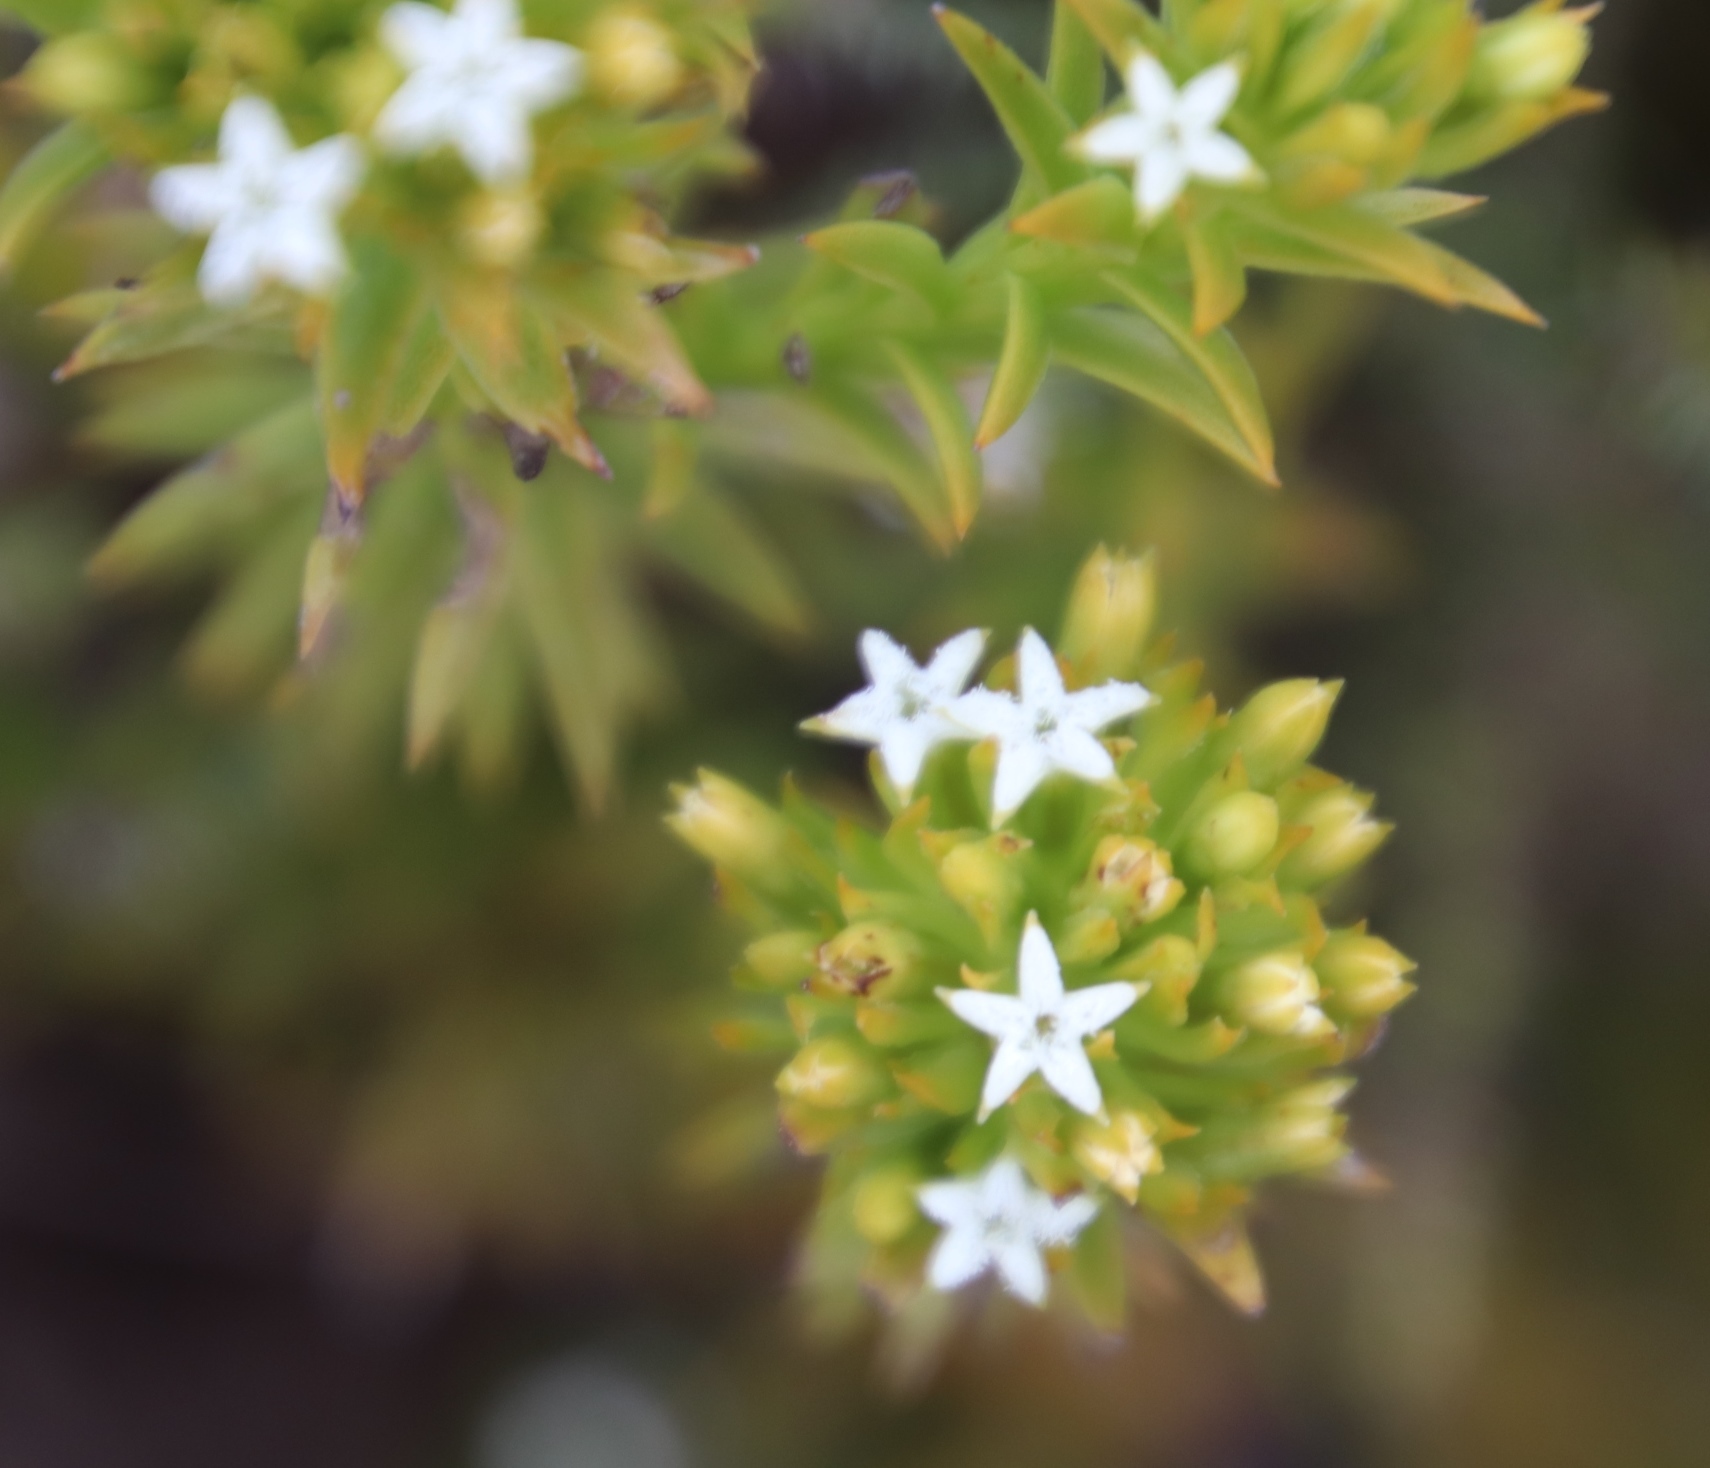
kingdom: Plantae
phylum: Tracheophyta
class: Magnoliopsida
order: Santalales
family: Thesiaceae
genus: Thesium
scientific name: Thesium viridifolium
